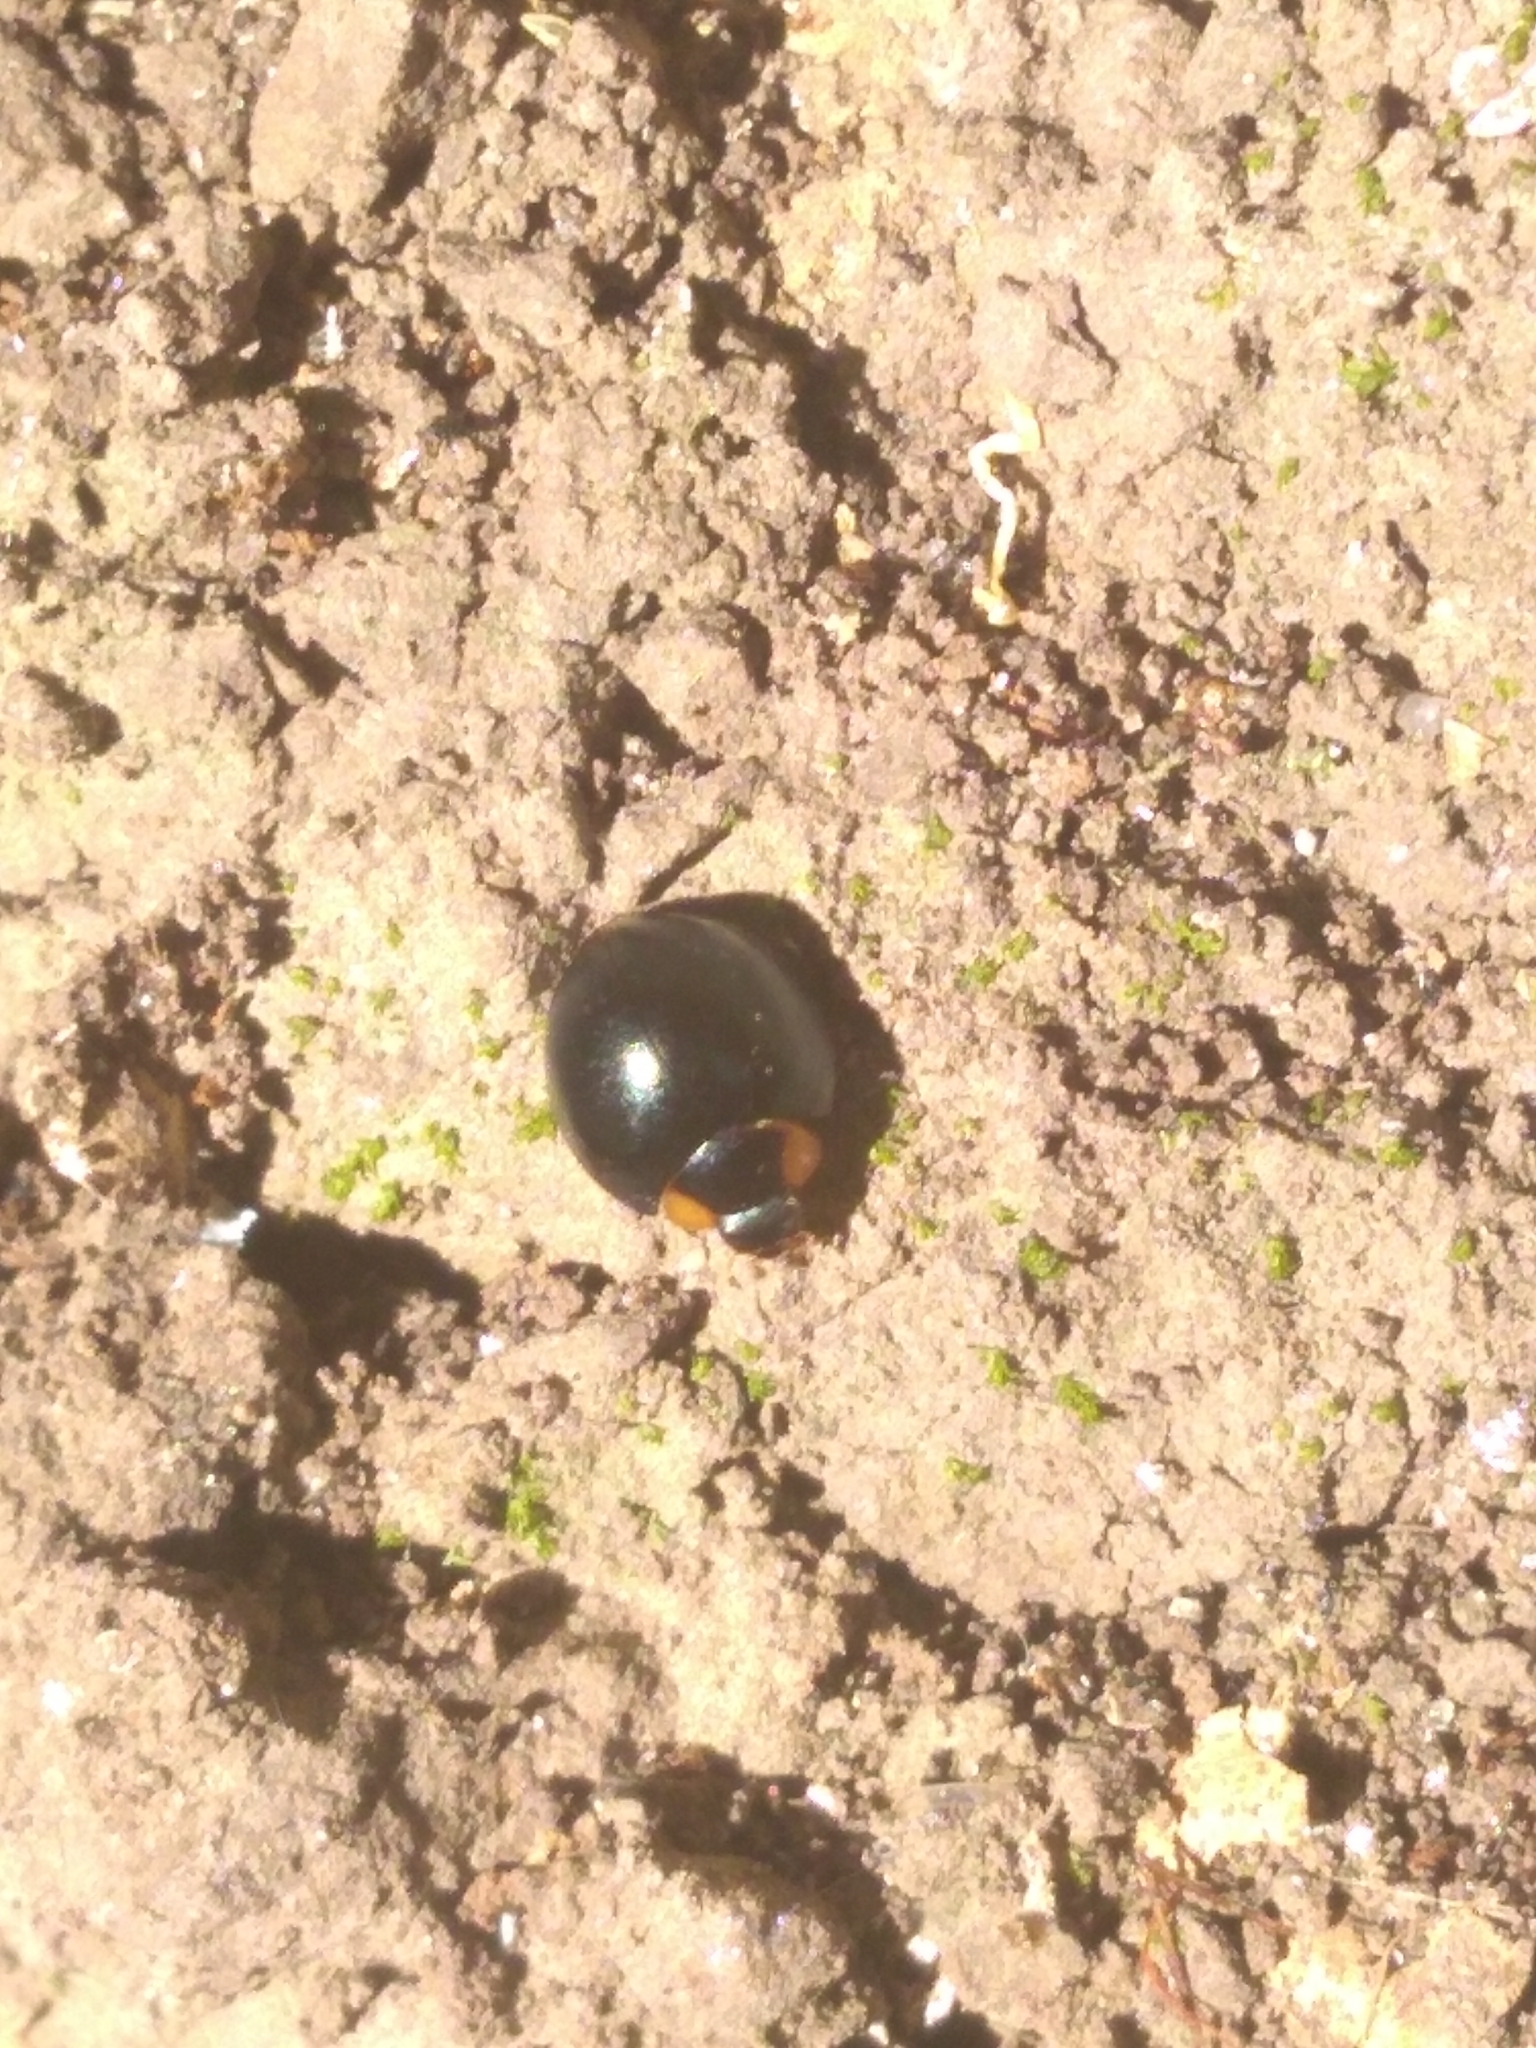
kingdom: Animalia
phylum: Arthropoda
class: Insecta
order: Coleoptera
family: Coccinellidae
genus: Curinus
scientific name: Curinus coeruleus
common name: Ladybird beetle
